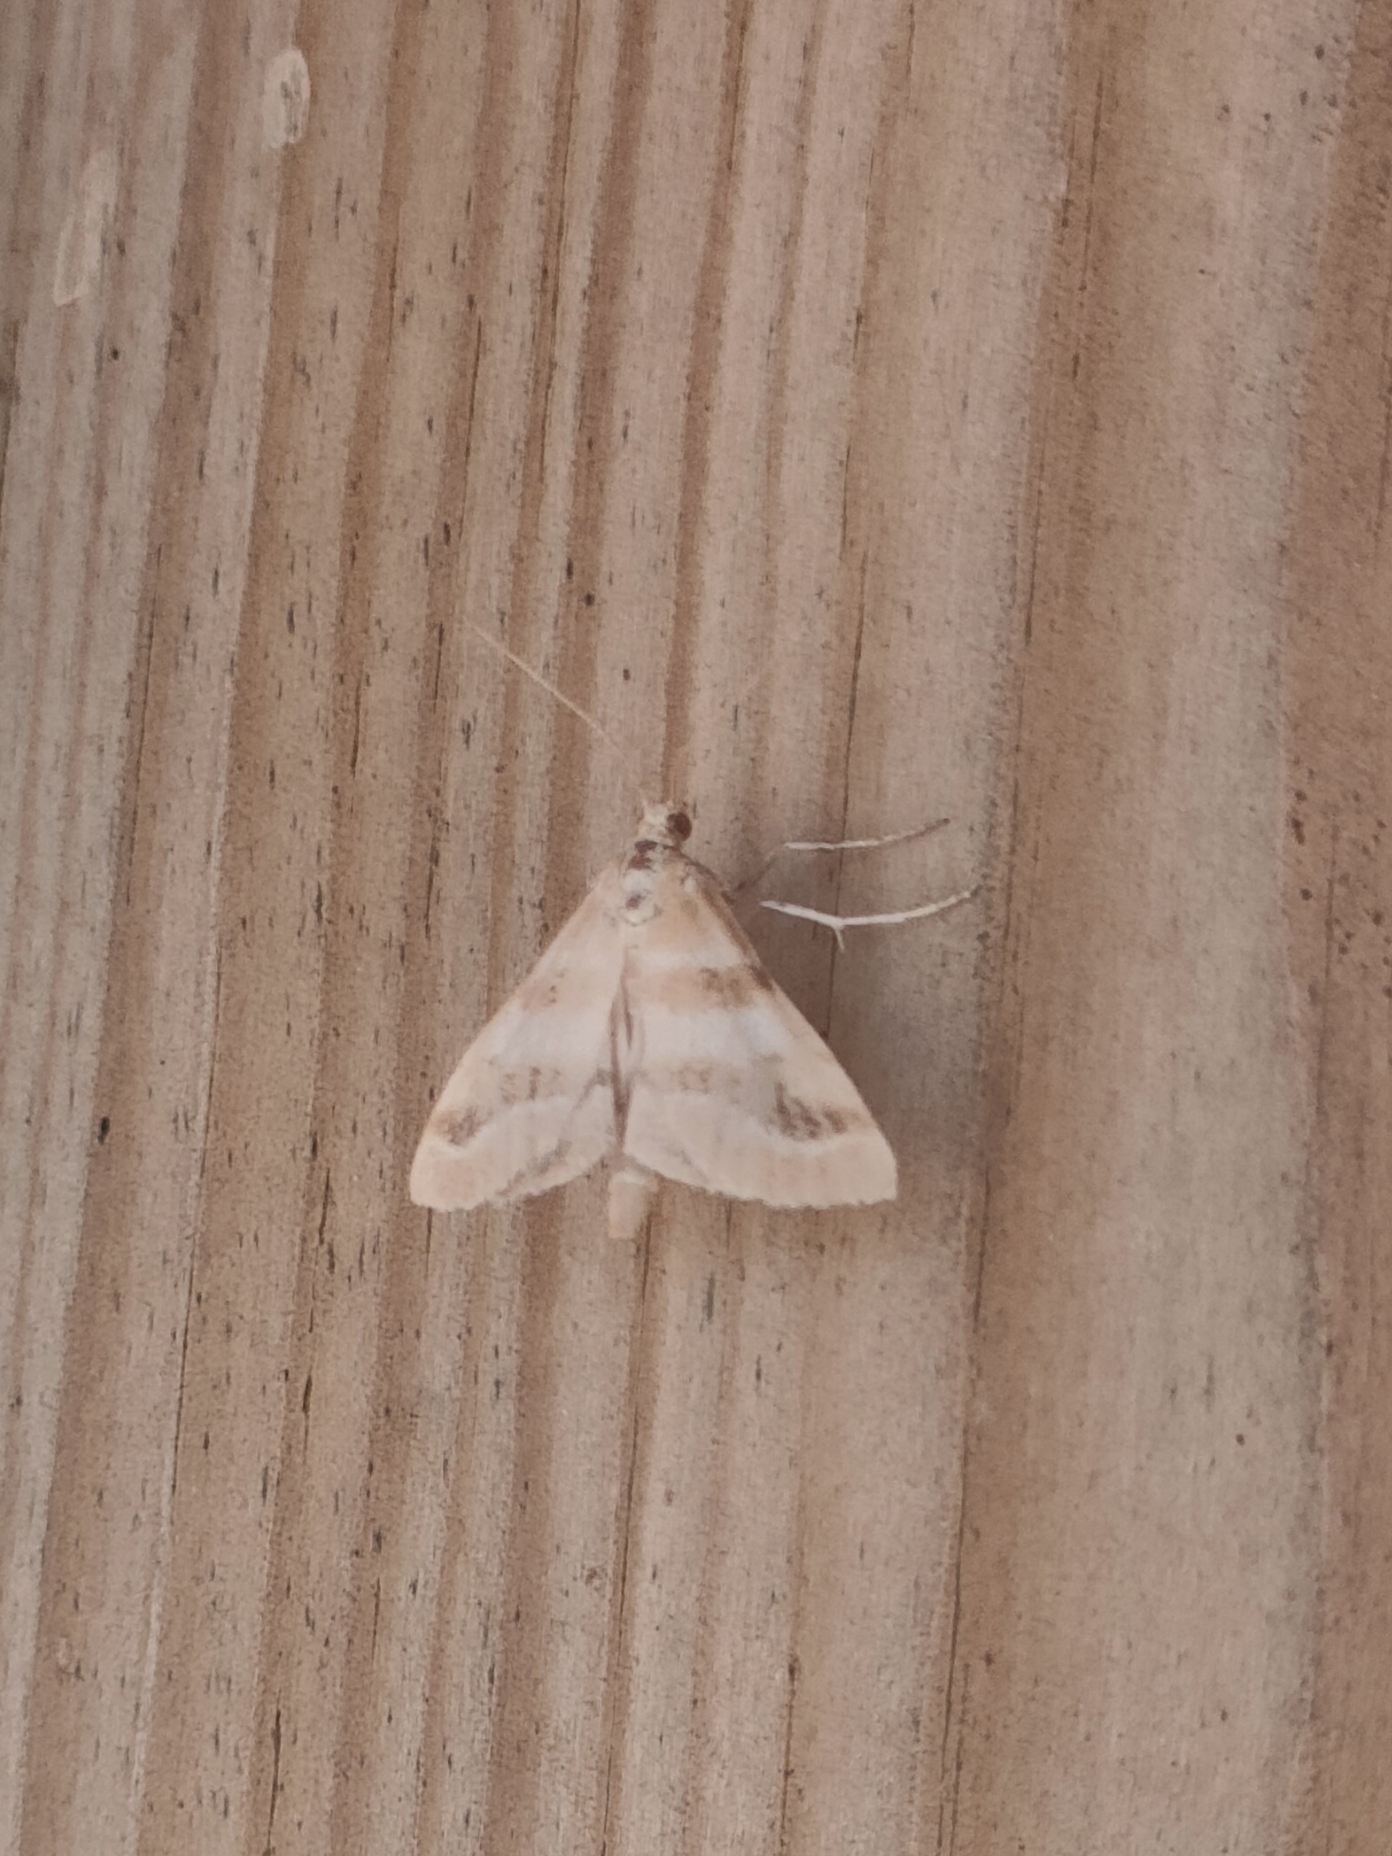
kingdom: Animalia
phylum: Arthropoda
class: Insecta
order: Lepidoptera
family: Crambidae
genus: Metasia
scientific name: Metasia suppandalis
